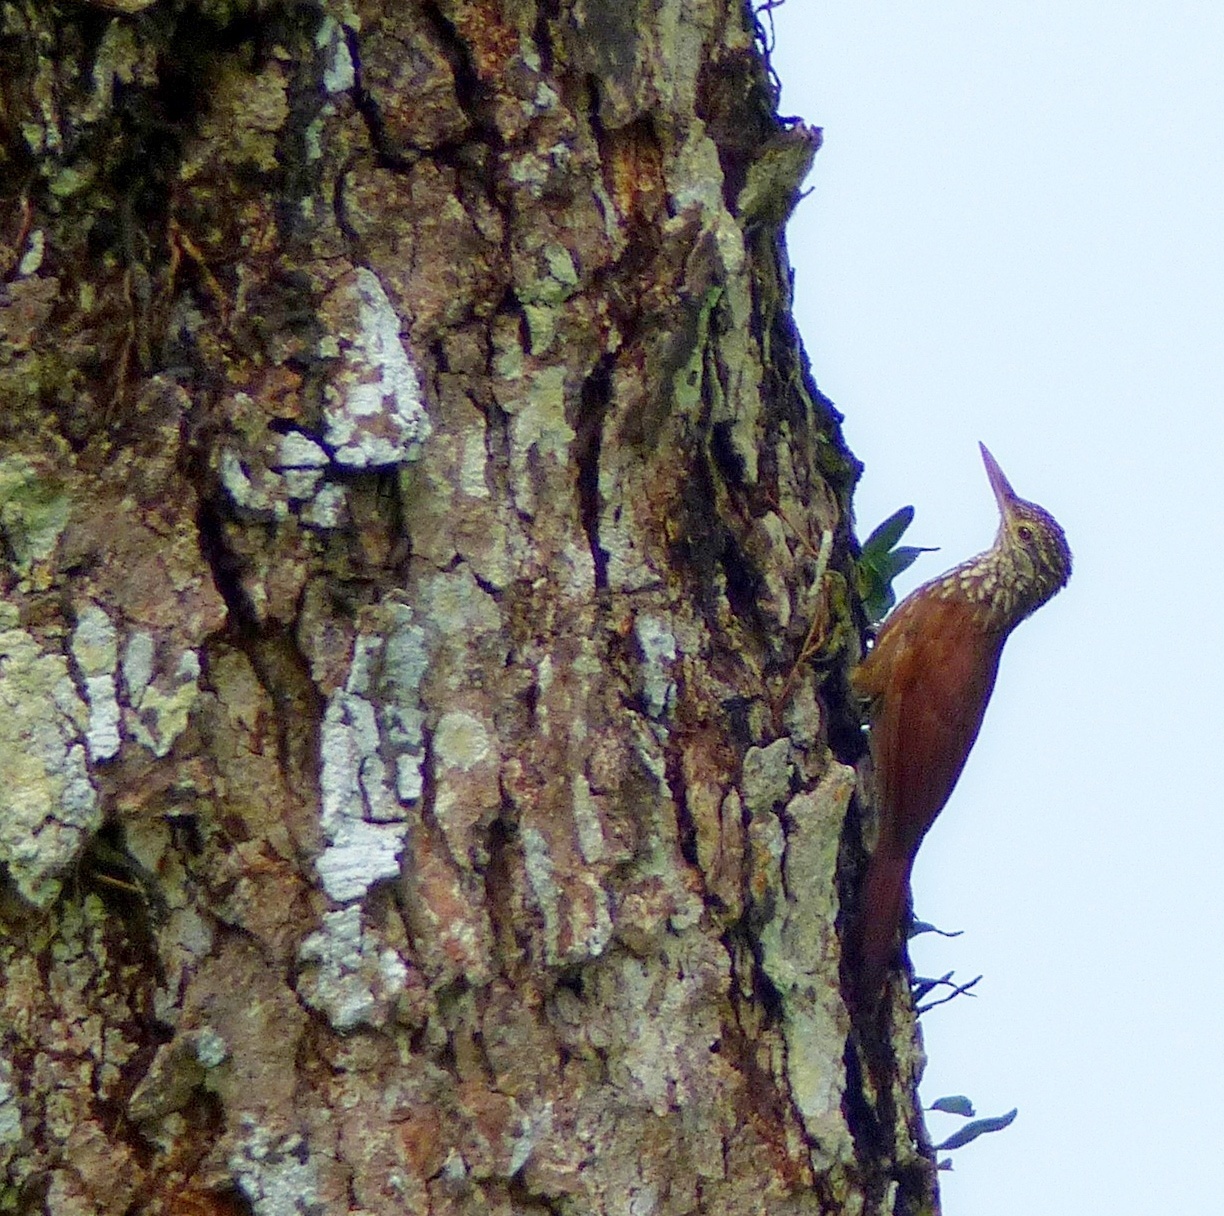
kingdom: Animalia
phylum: Chordata
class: Aves
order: Passeriformes
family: Furnariidae
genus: Xiphorhynchus
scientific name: Xiphorhynchus picus
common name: Straight-billed woodcreeper
